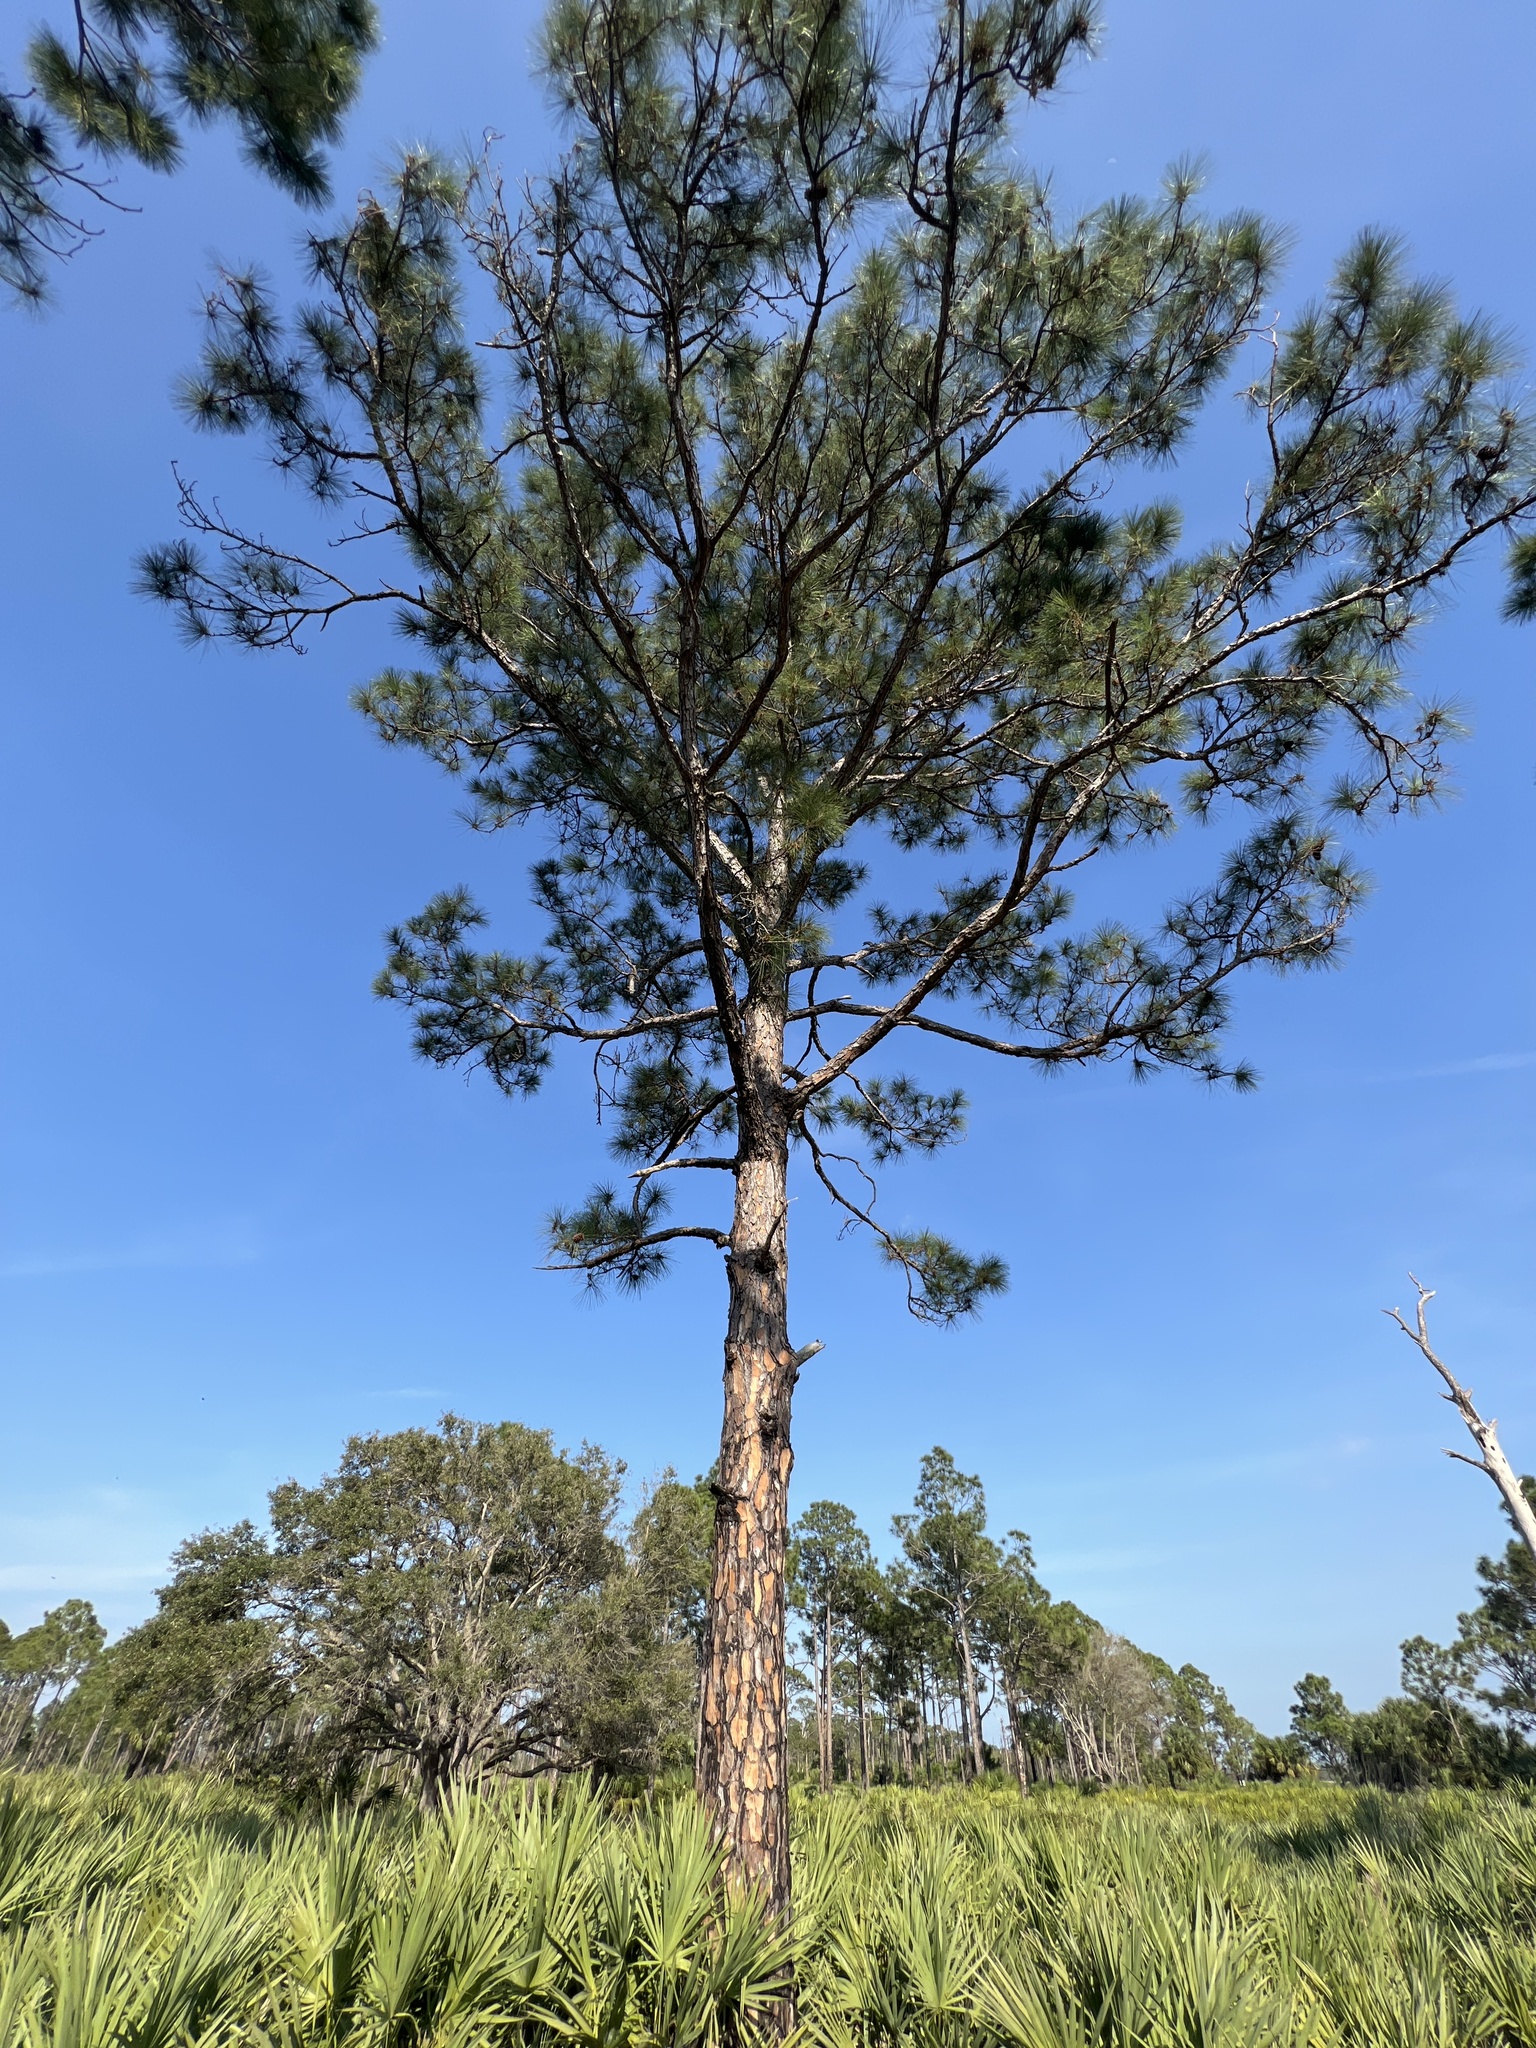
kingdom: Plantae
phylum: Tracheophyta
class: Pinopsida
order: Pinales
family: Pinaceae
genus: Pinus
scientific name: Pinus elliottii
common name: Slash pine
